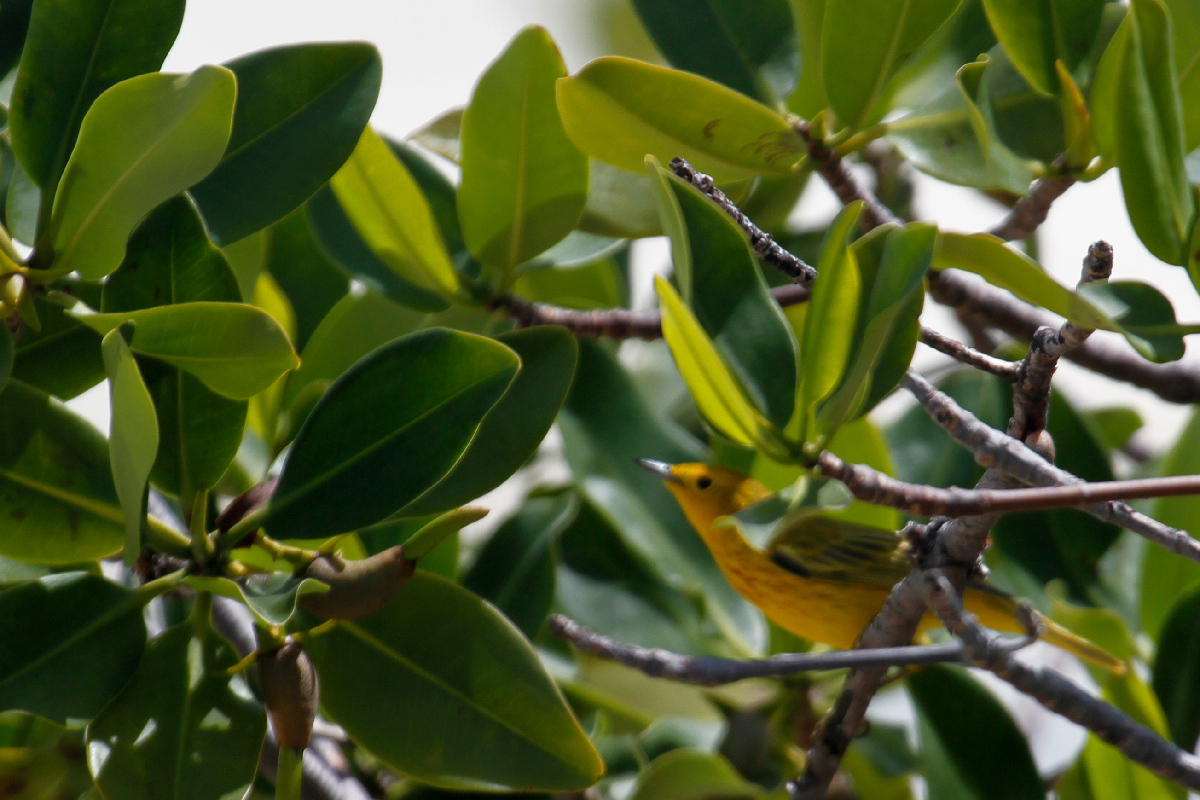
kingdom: Animalia
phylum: Chordata
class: Aves
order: Passeriformes
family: Parulidae
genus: Setophaga
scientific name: Setophaga petechia
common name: Yellow warbler
